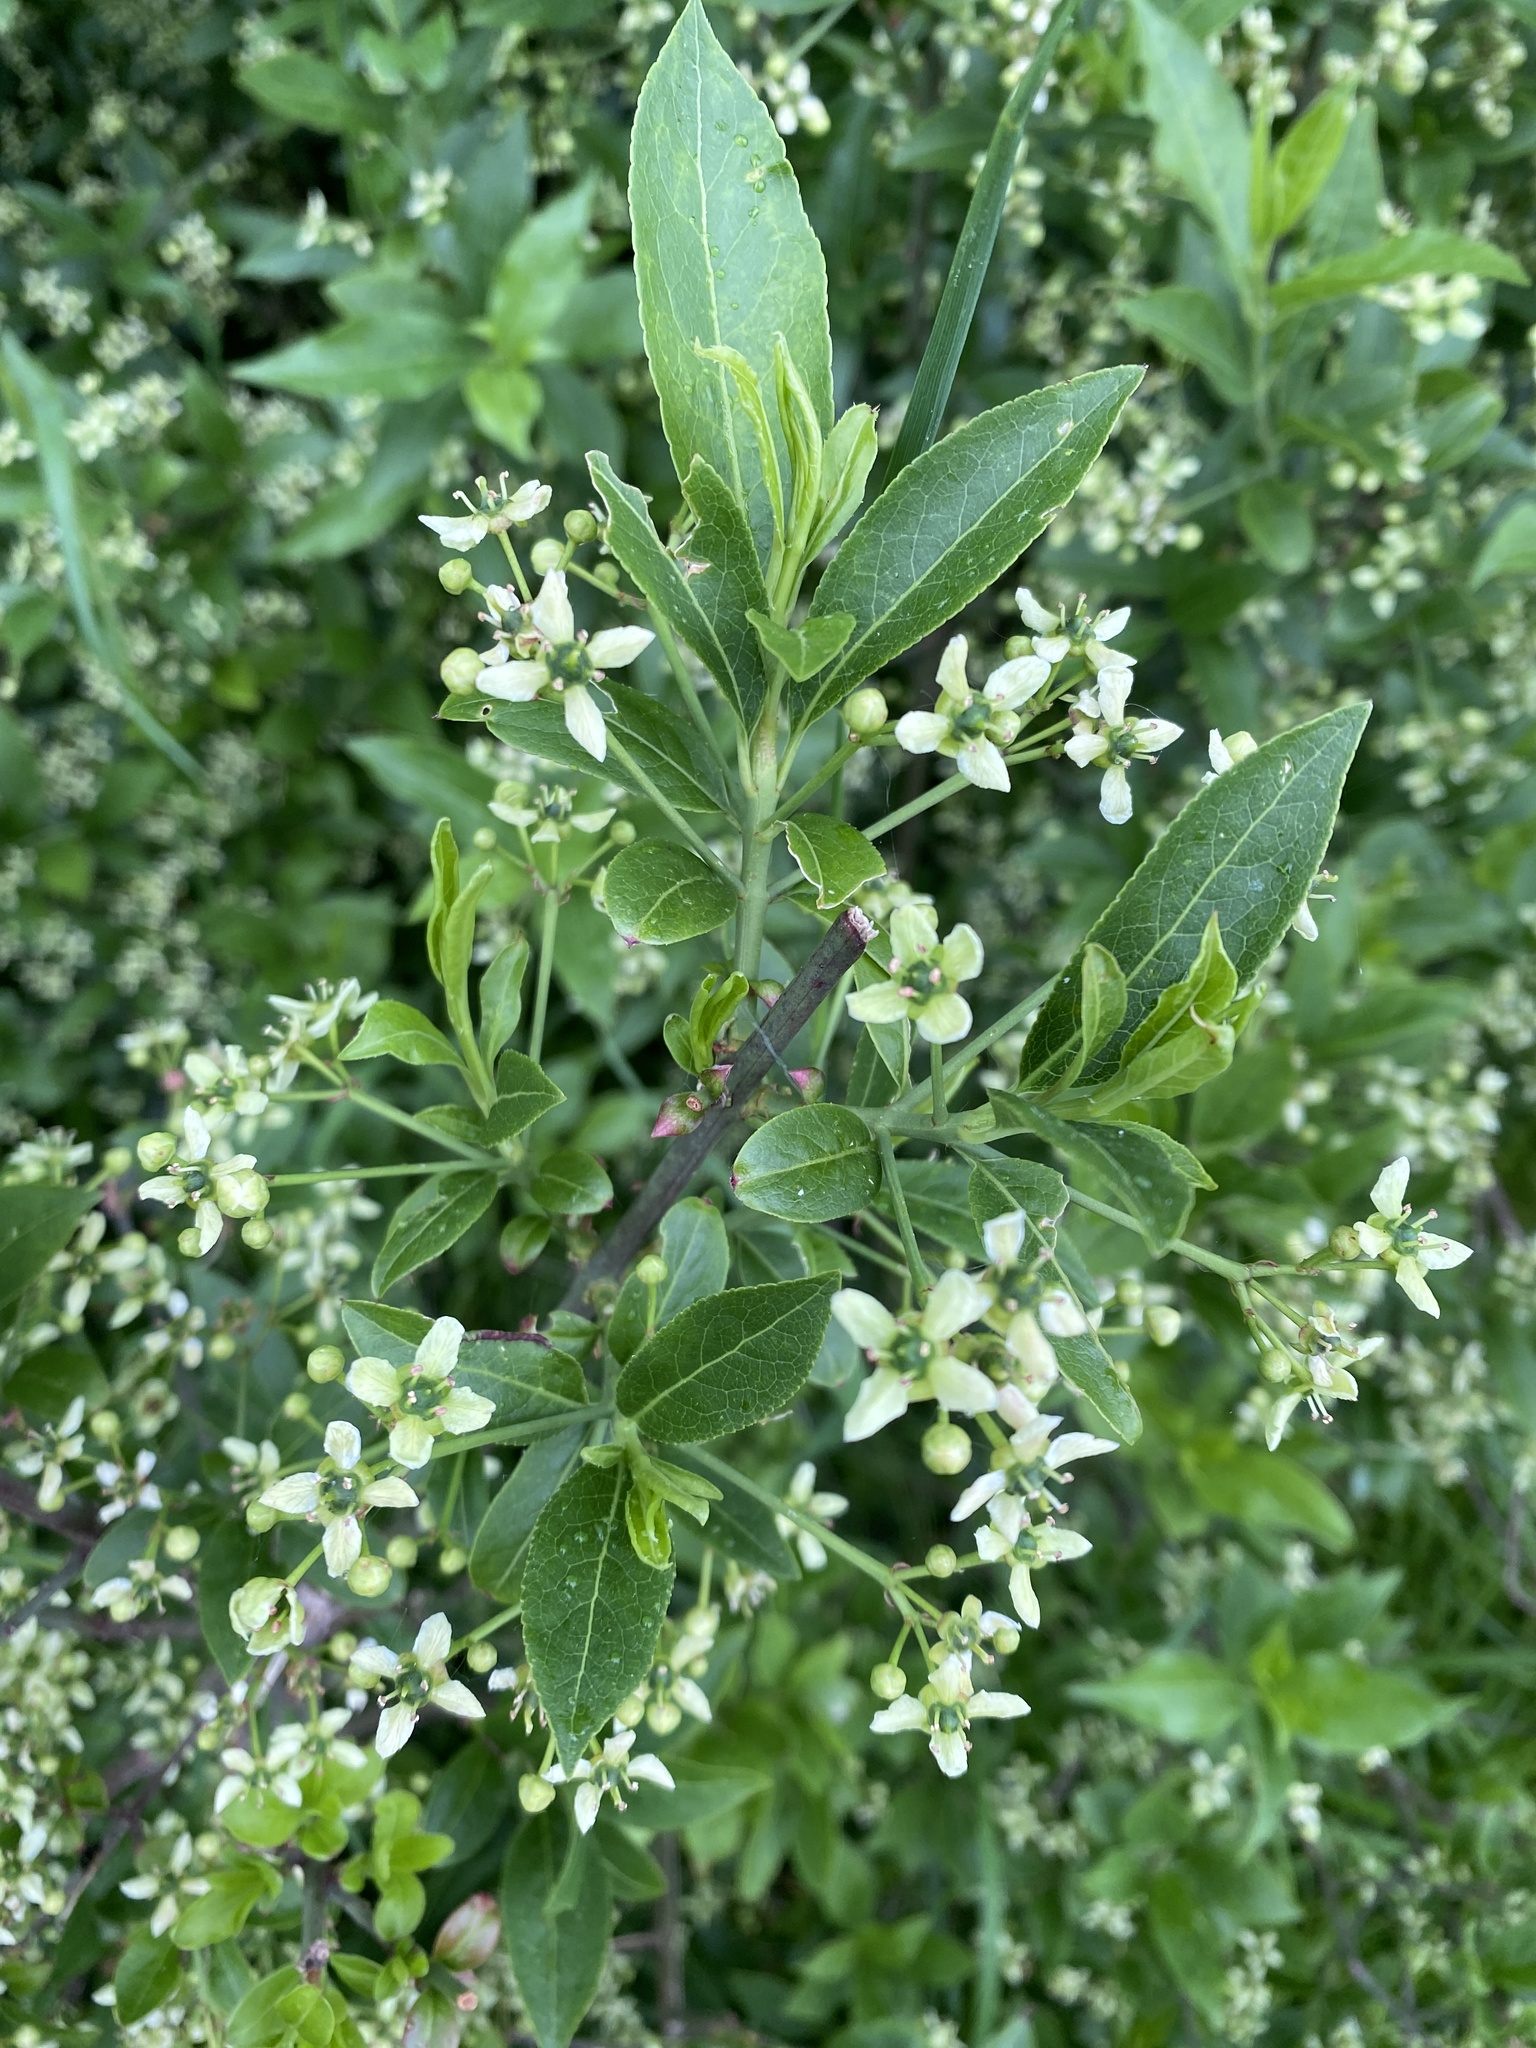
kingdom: Plantae
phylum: Tracheophyta
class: Magnoliopsida
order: Celastrales
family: Celastraceae
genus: Euonymus
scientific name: Euonymus europaeus
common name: Spindle
